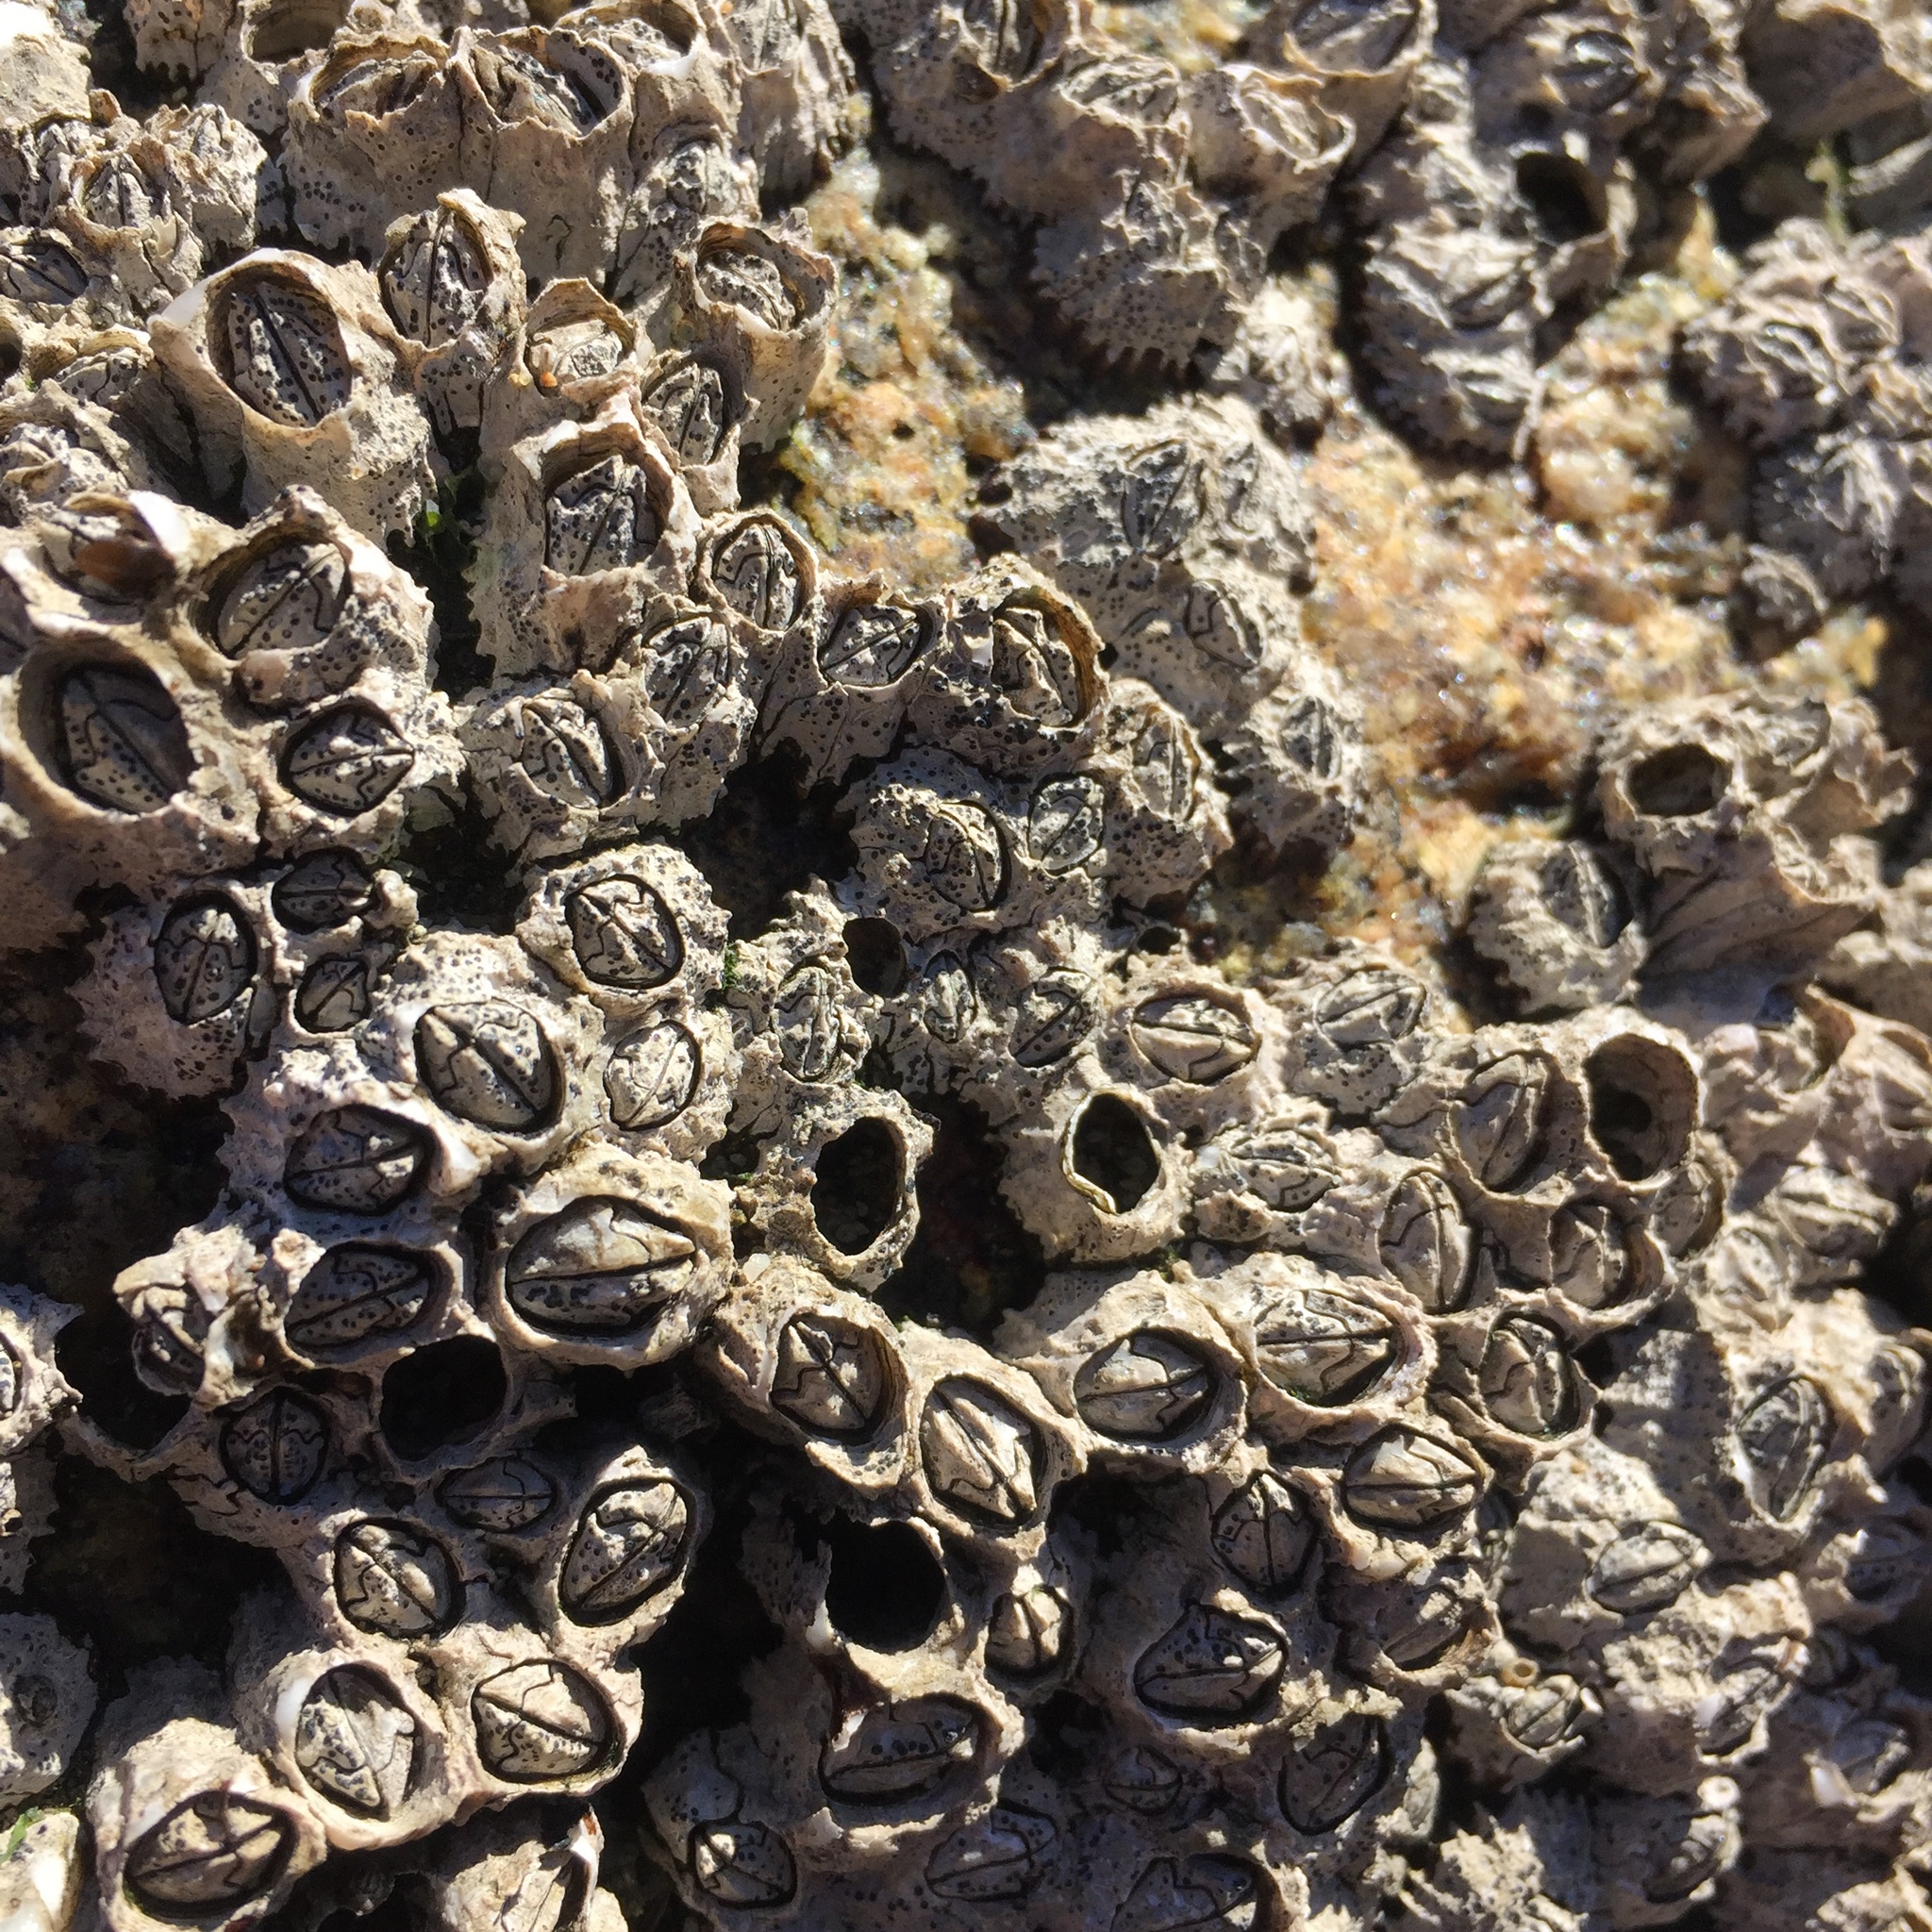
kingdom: Animalia
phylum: Arthropoda
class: Maxillopoda
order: Sessilia
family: Chthamalidae
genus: Jehlius
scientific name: Jehlius cirratus
